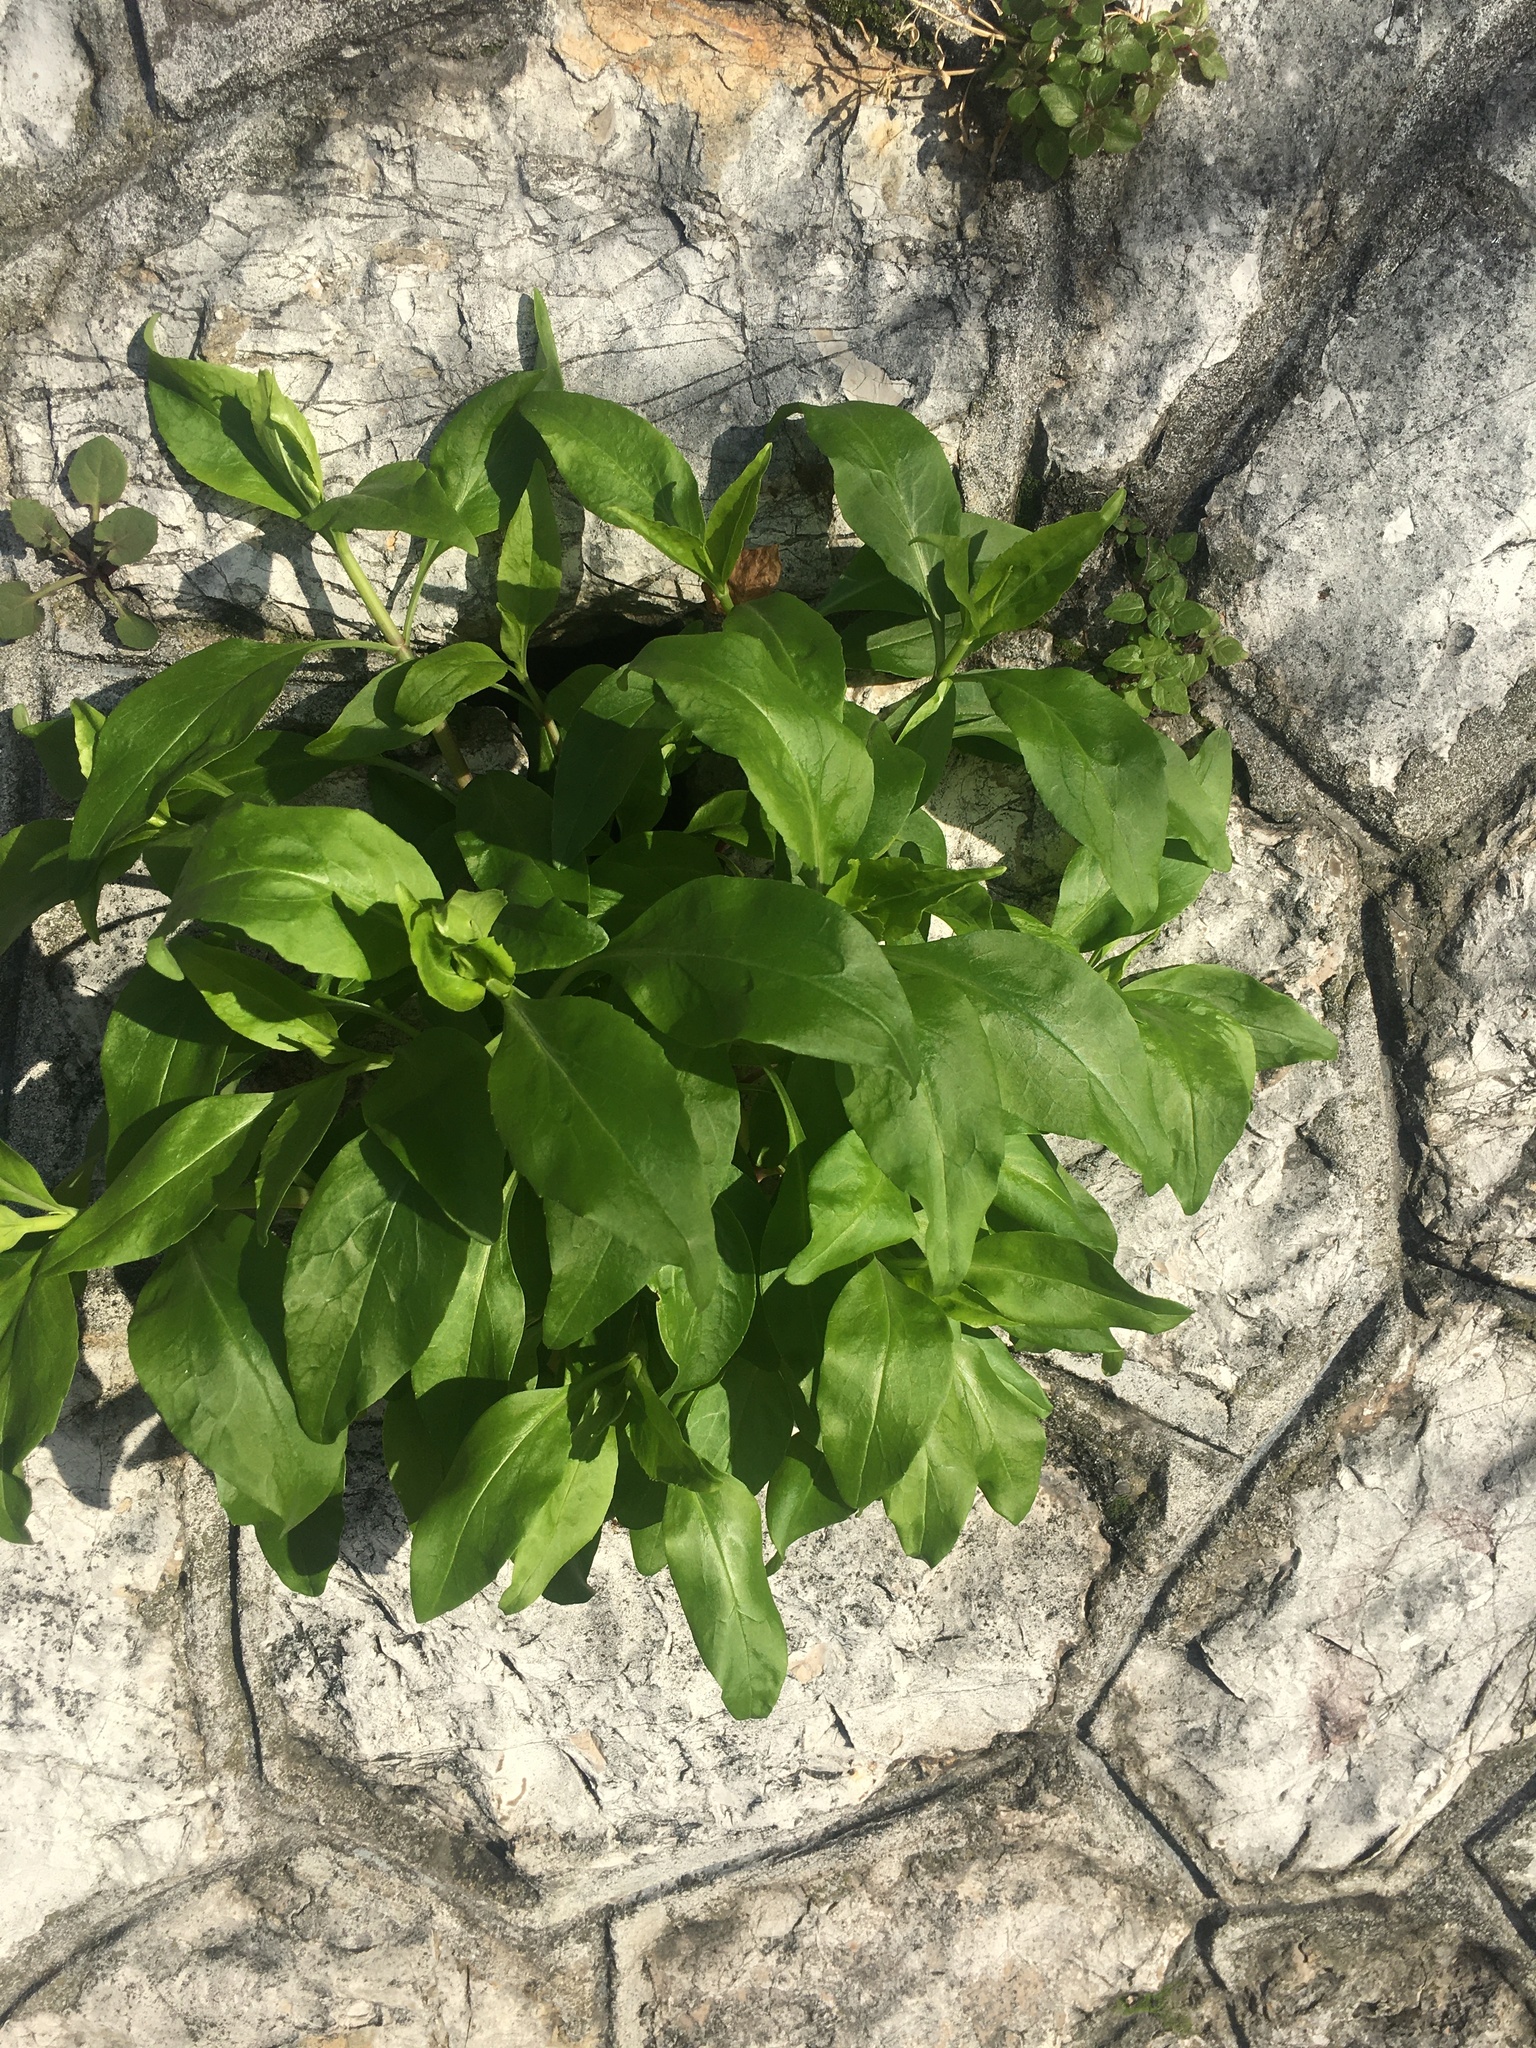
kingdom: Plantae
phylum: Tracheophyta
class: Magnoliopsida
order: Dipsacales
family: Caprifoliaceae
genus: Centranthus
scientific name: Centranthus ruber
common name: Red valerian
